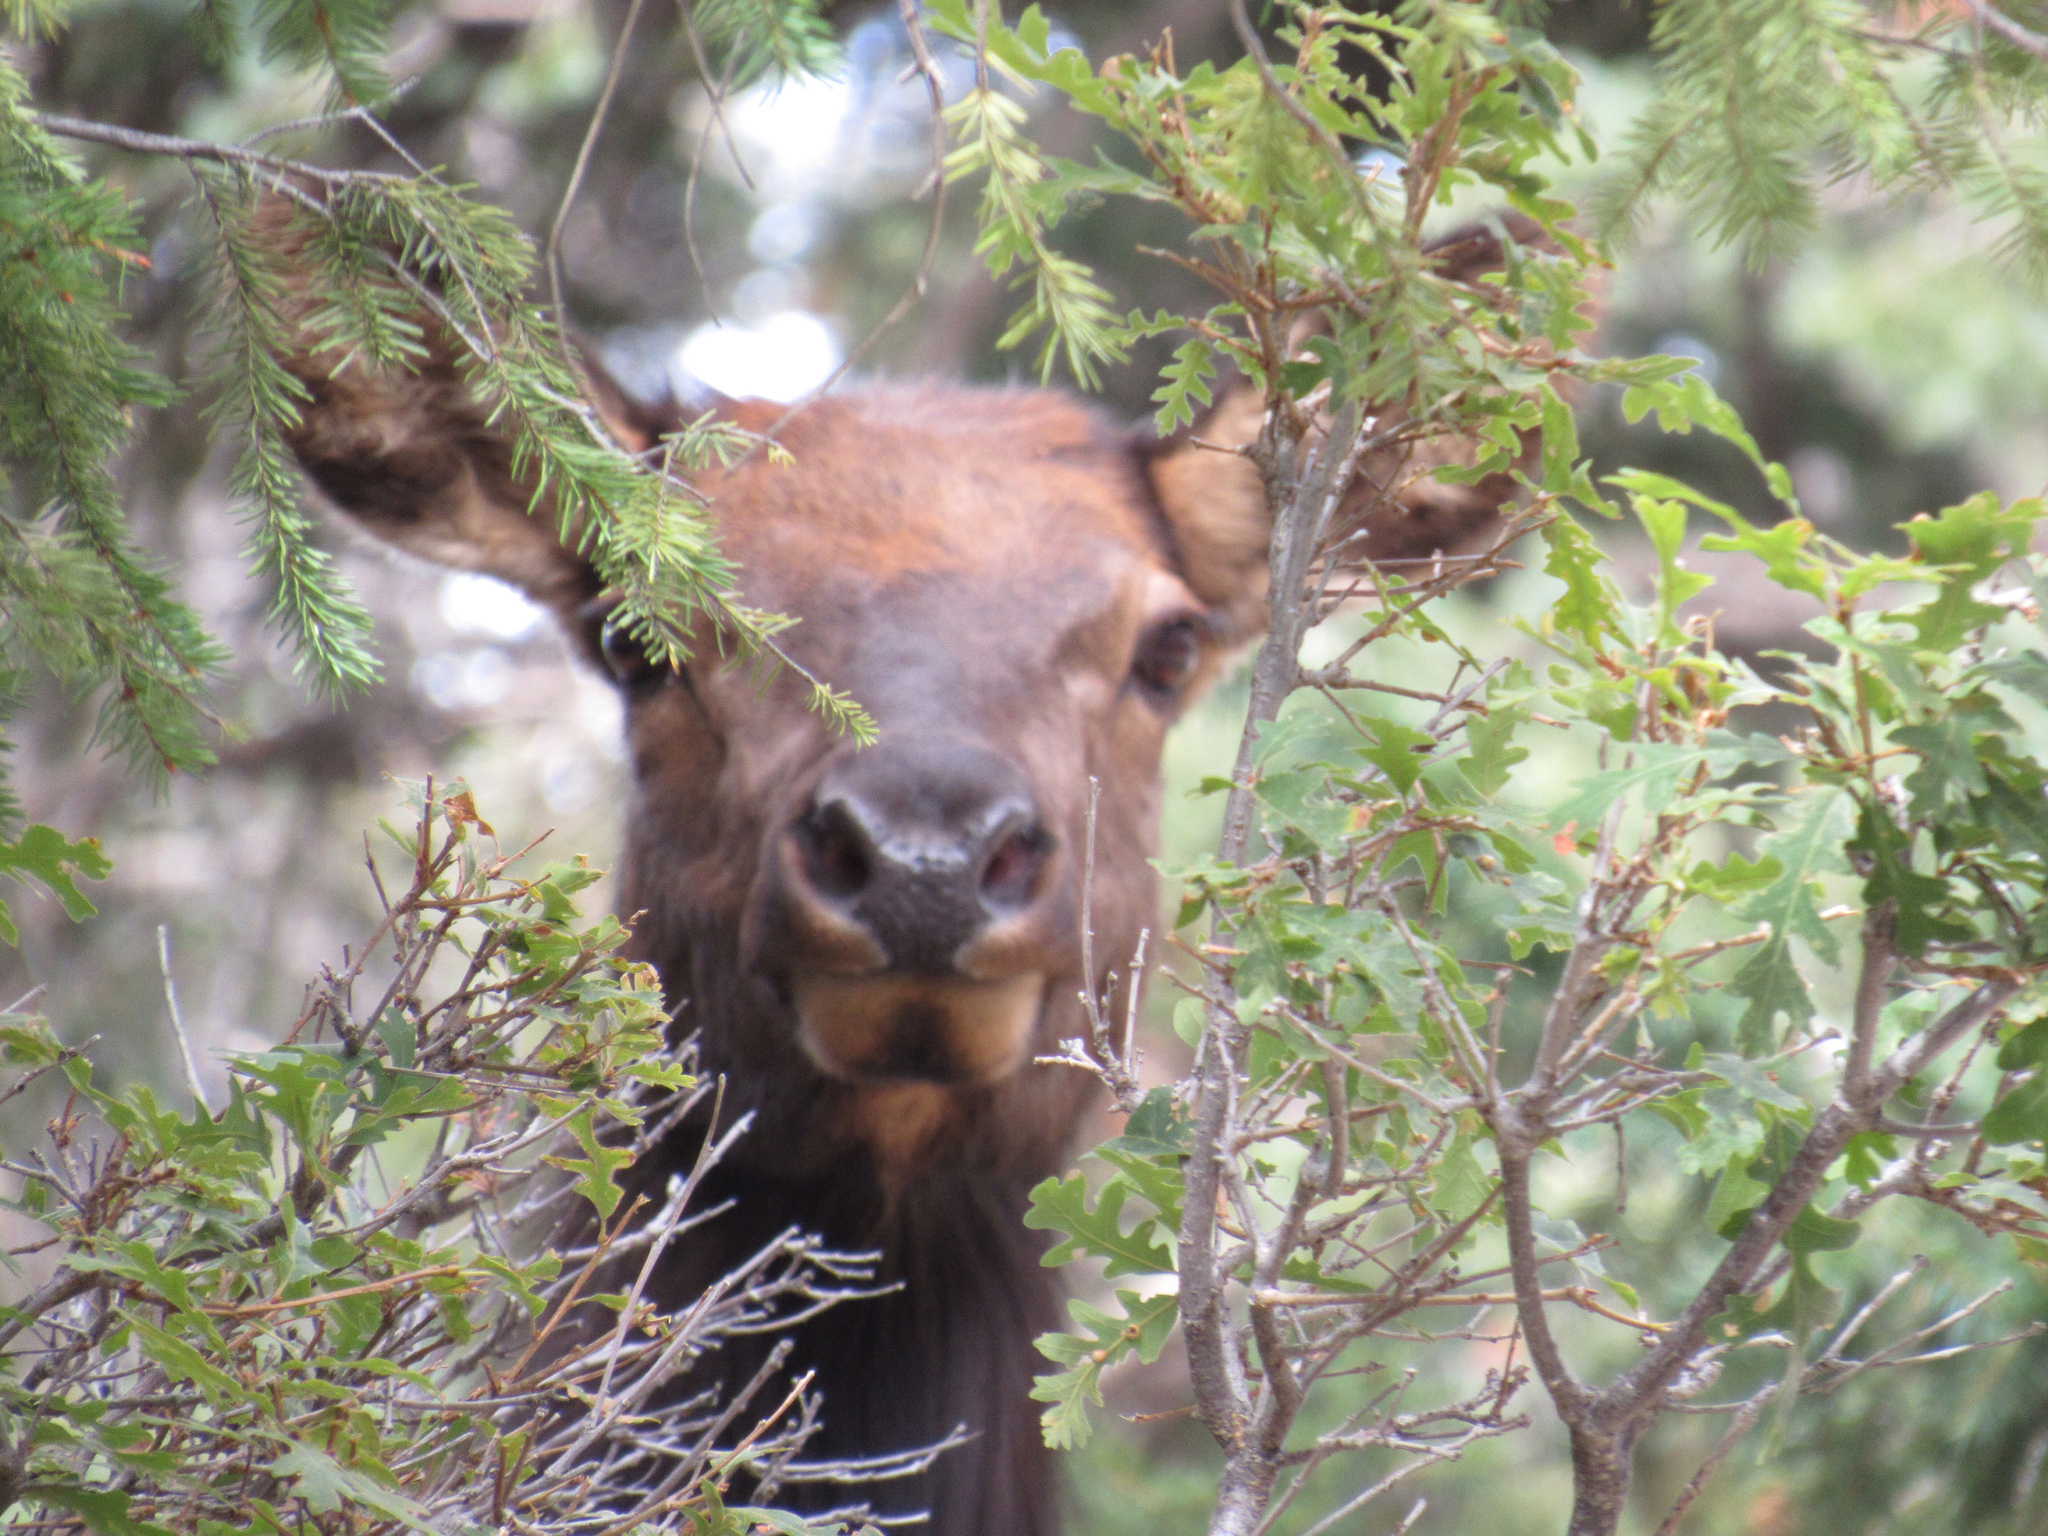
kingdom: Animalia
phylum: Chordata
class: Mammalia
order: Artiodactyla
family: Cervidae
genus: Cervus
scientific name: Cervus elaphus
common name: Red deer
